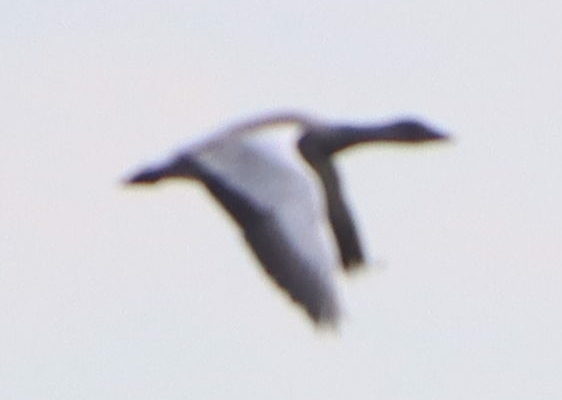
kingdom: Animalia
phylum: Chordata
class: Aves
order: Anseriformes
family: Anatidae
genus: Anser
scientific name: Anser caerulescens
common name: Snow goose
